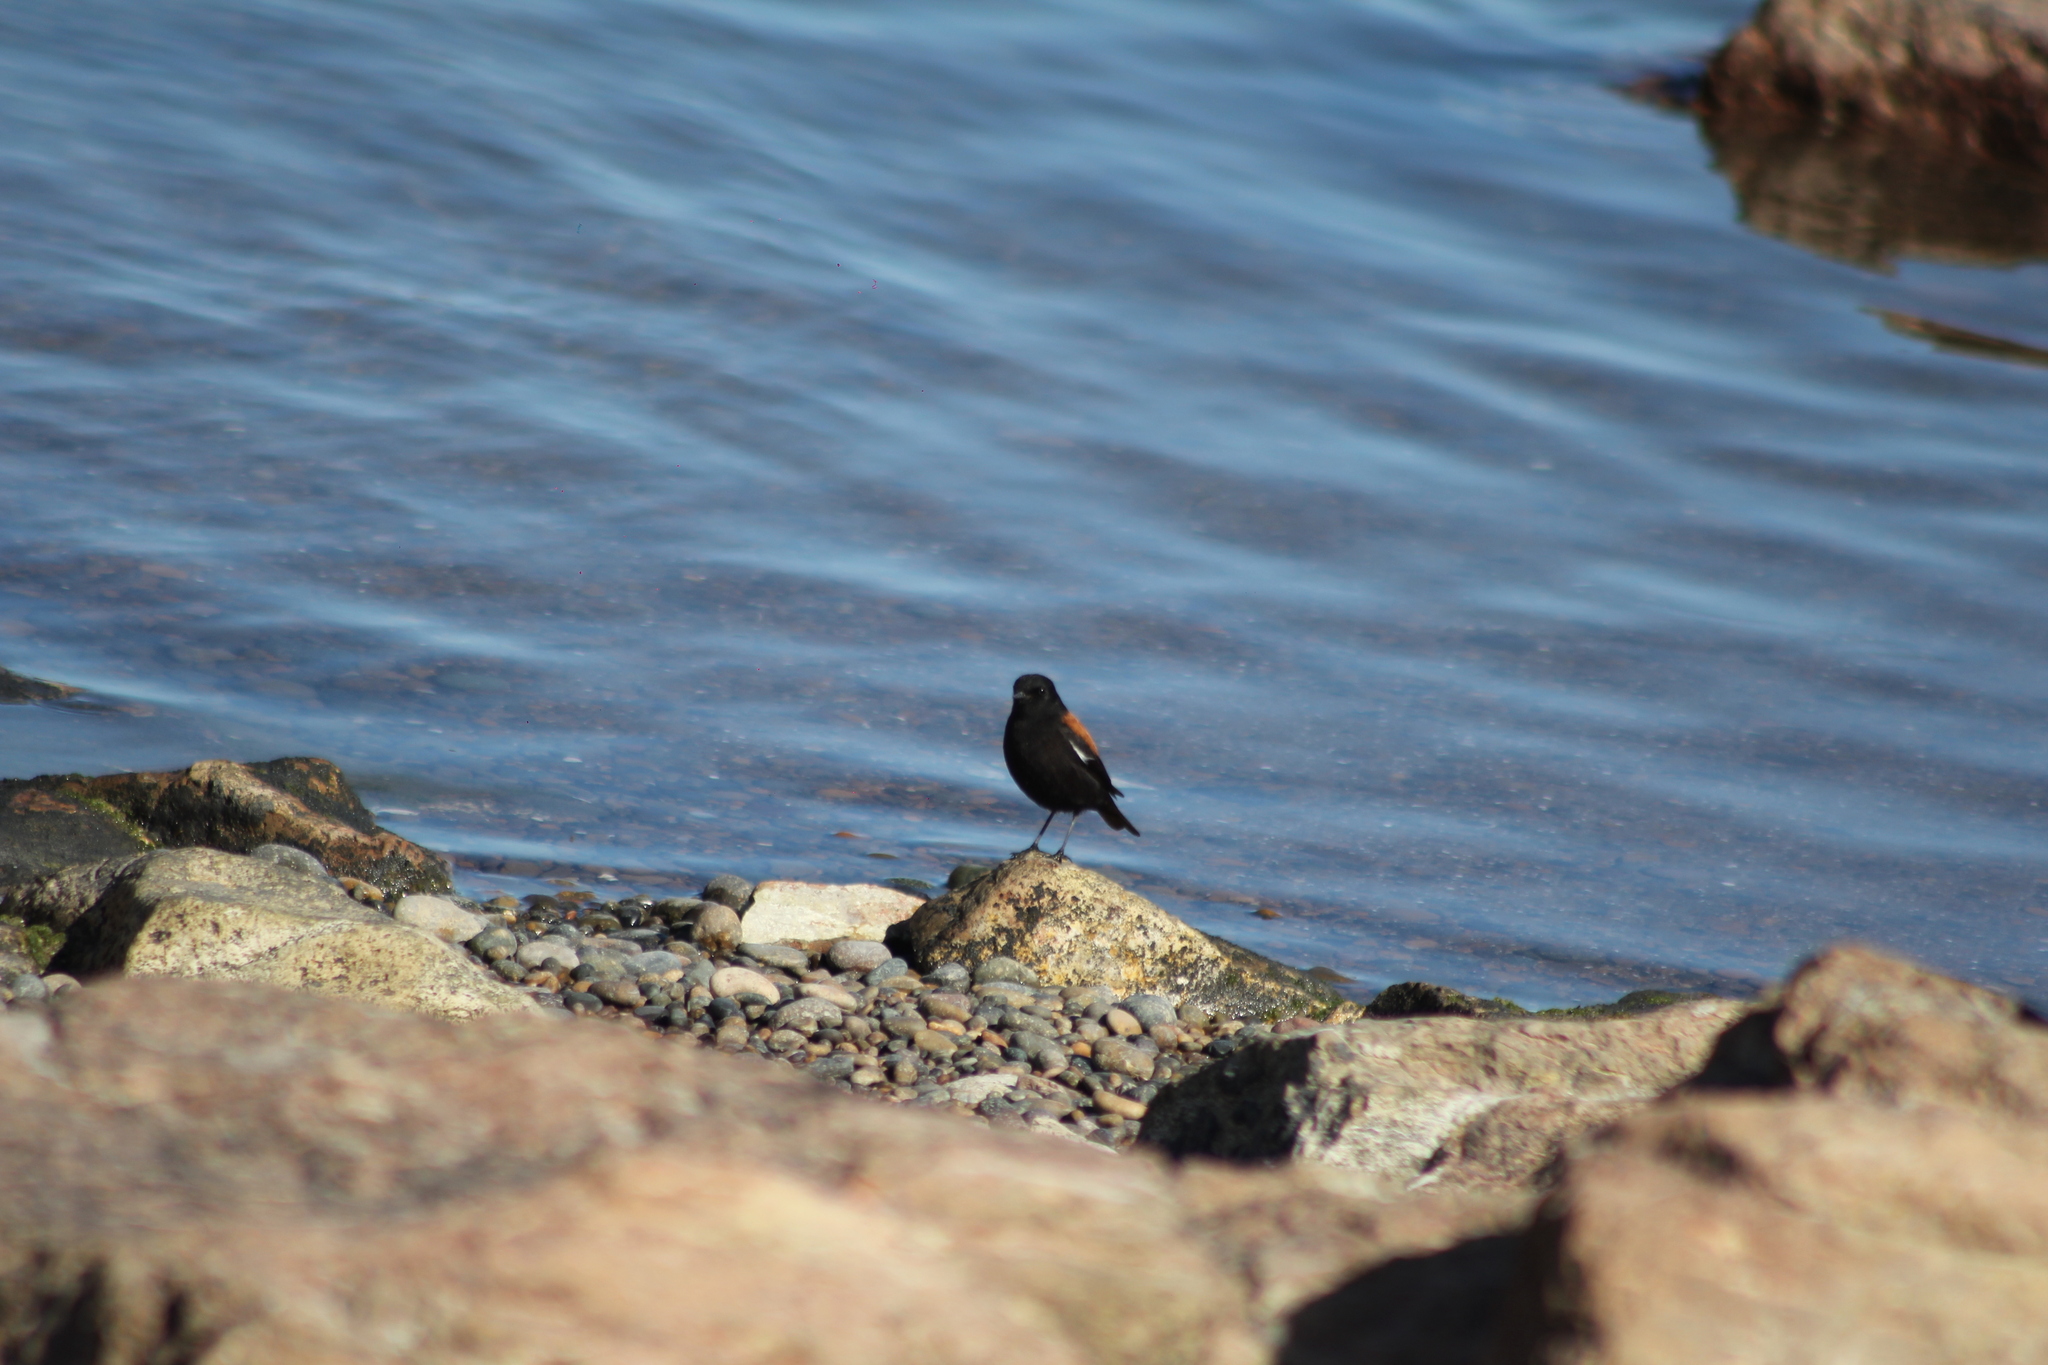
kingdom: Animalia
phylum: Chordata
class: Aves
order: Passeriformes
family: Tyrannidae
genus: Lessonia
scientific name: Lessonia rufa
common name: Austral negrito
